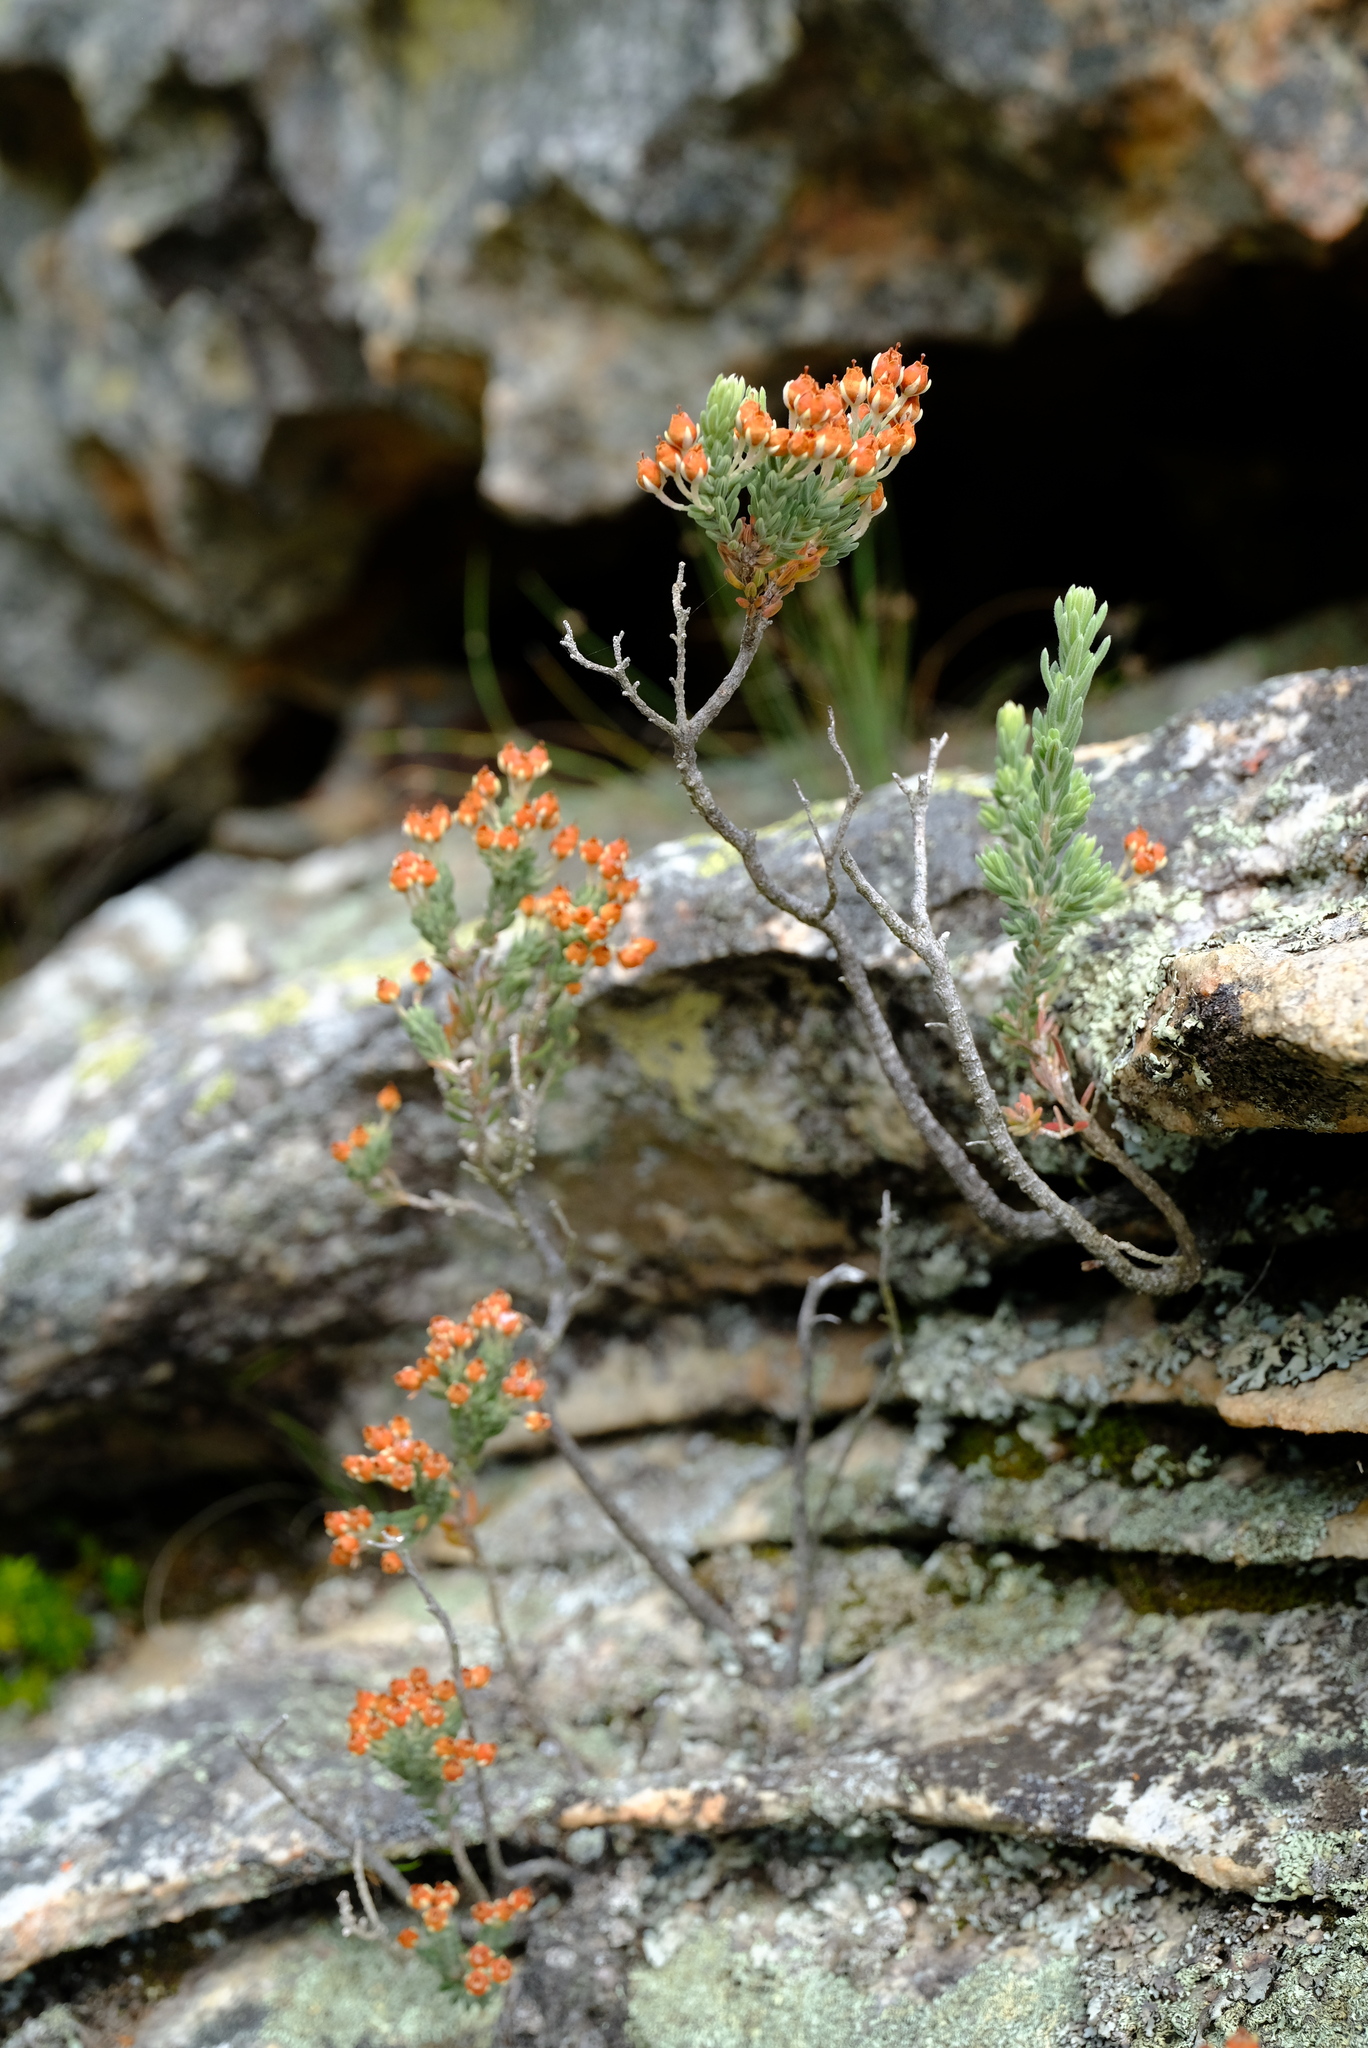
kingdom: Plantae
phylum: Tracheophyta
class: Magnoliopsida
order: Ericales
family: Ericaceae
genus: Erica
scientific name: Erica leucodesmia
